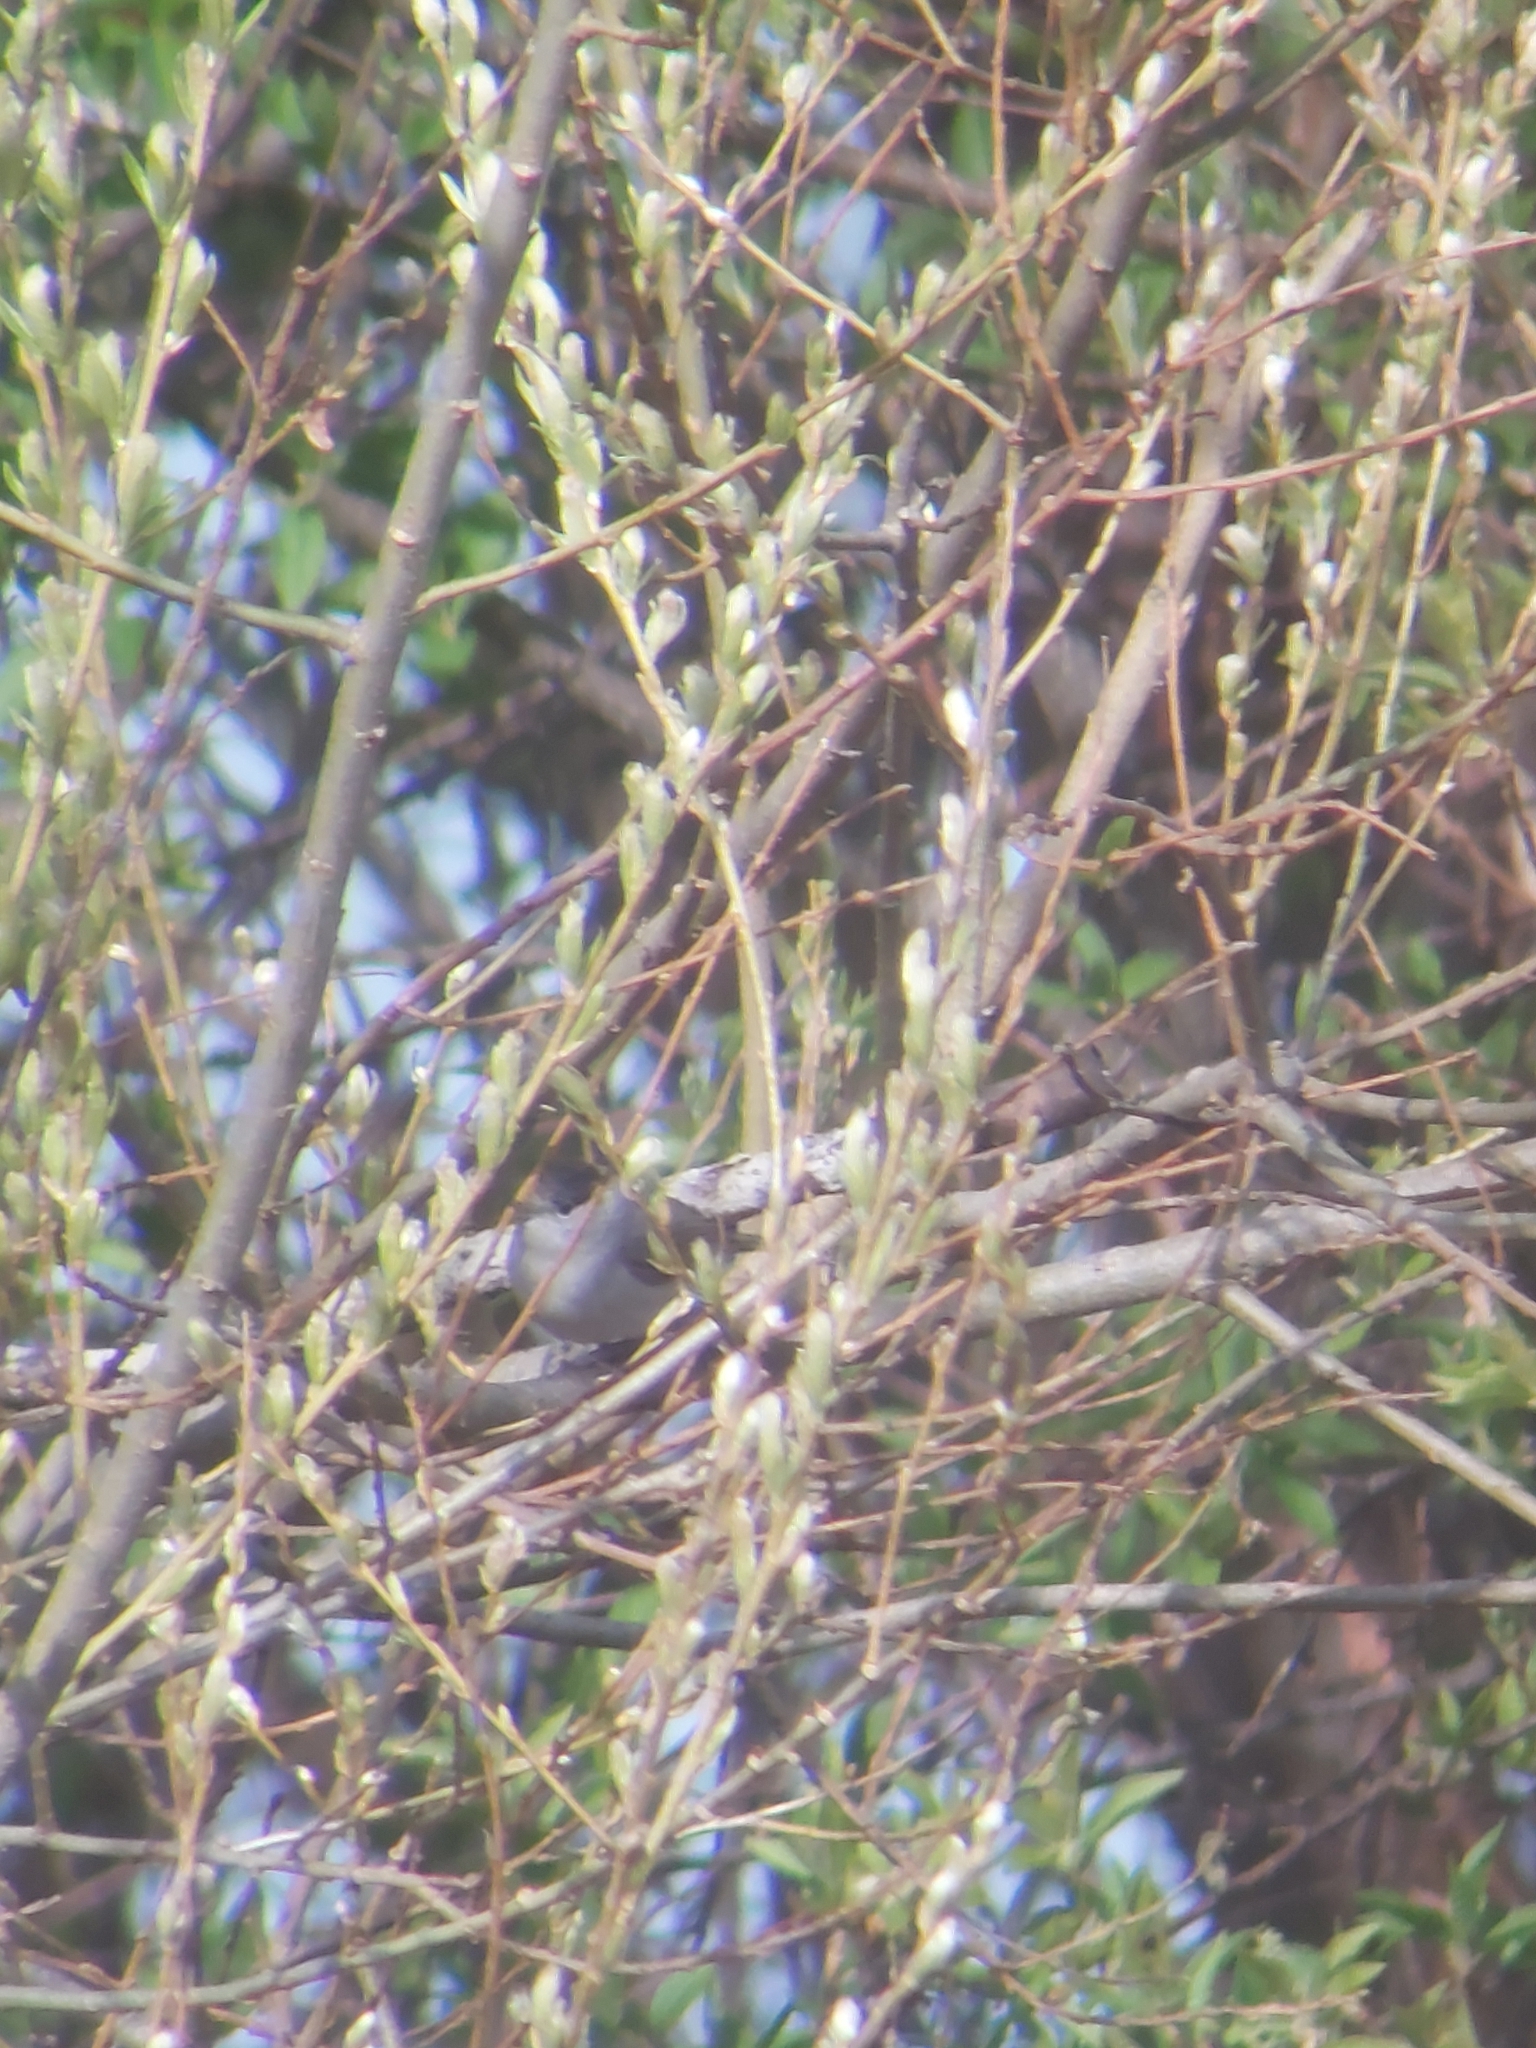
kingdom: Animalia
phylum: Chordata
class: Aves
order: Passeriformes
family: Sylviidae
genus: Sylvia
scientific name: Sylvia atricapilla
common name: Eurasian blackcap
